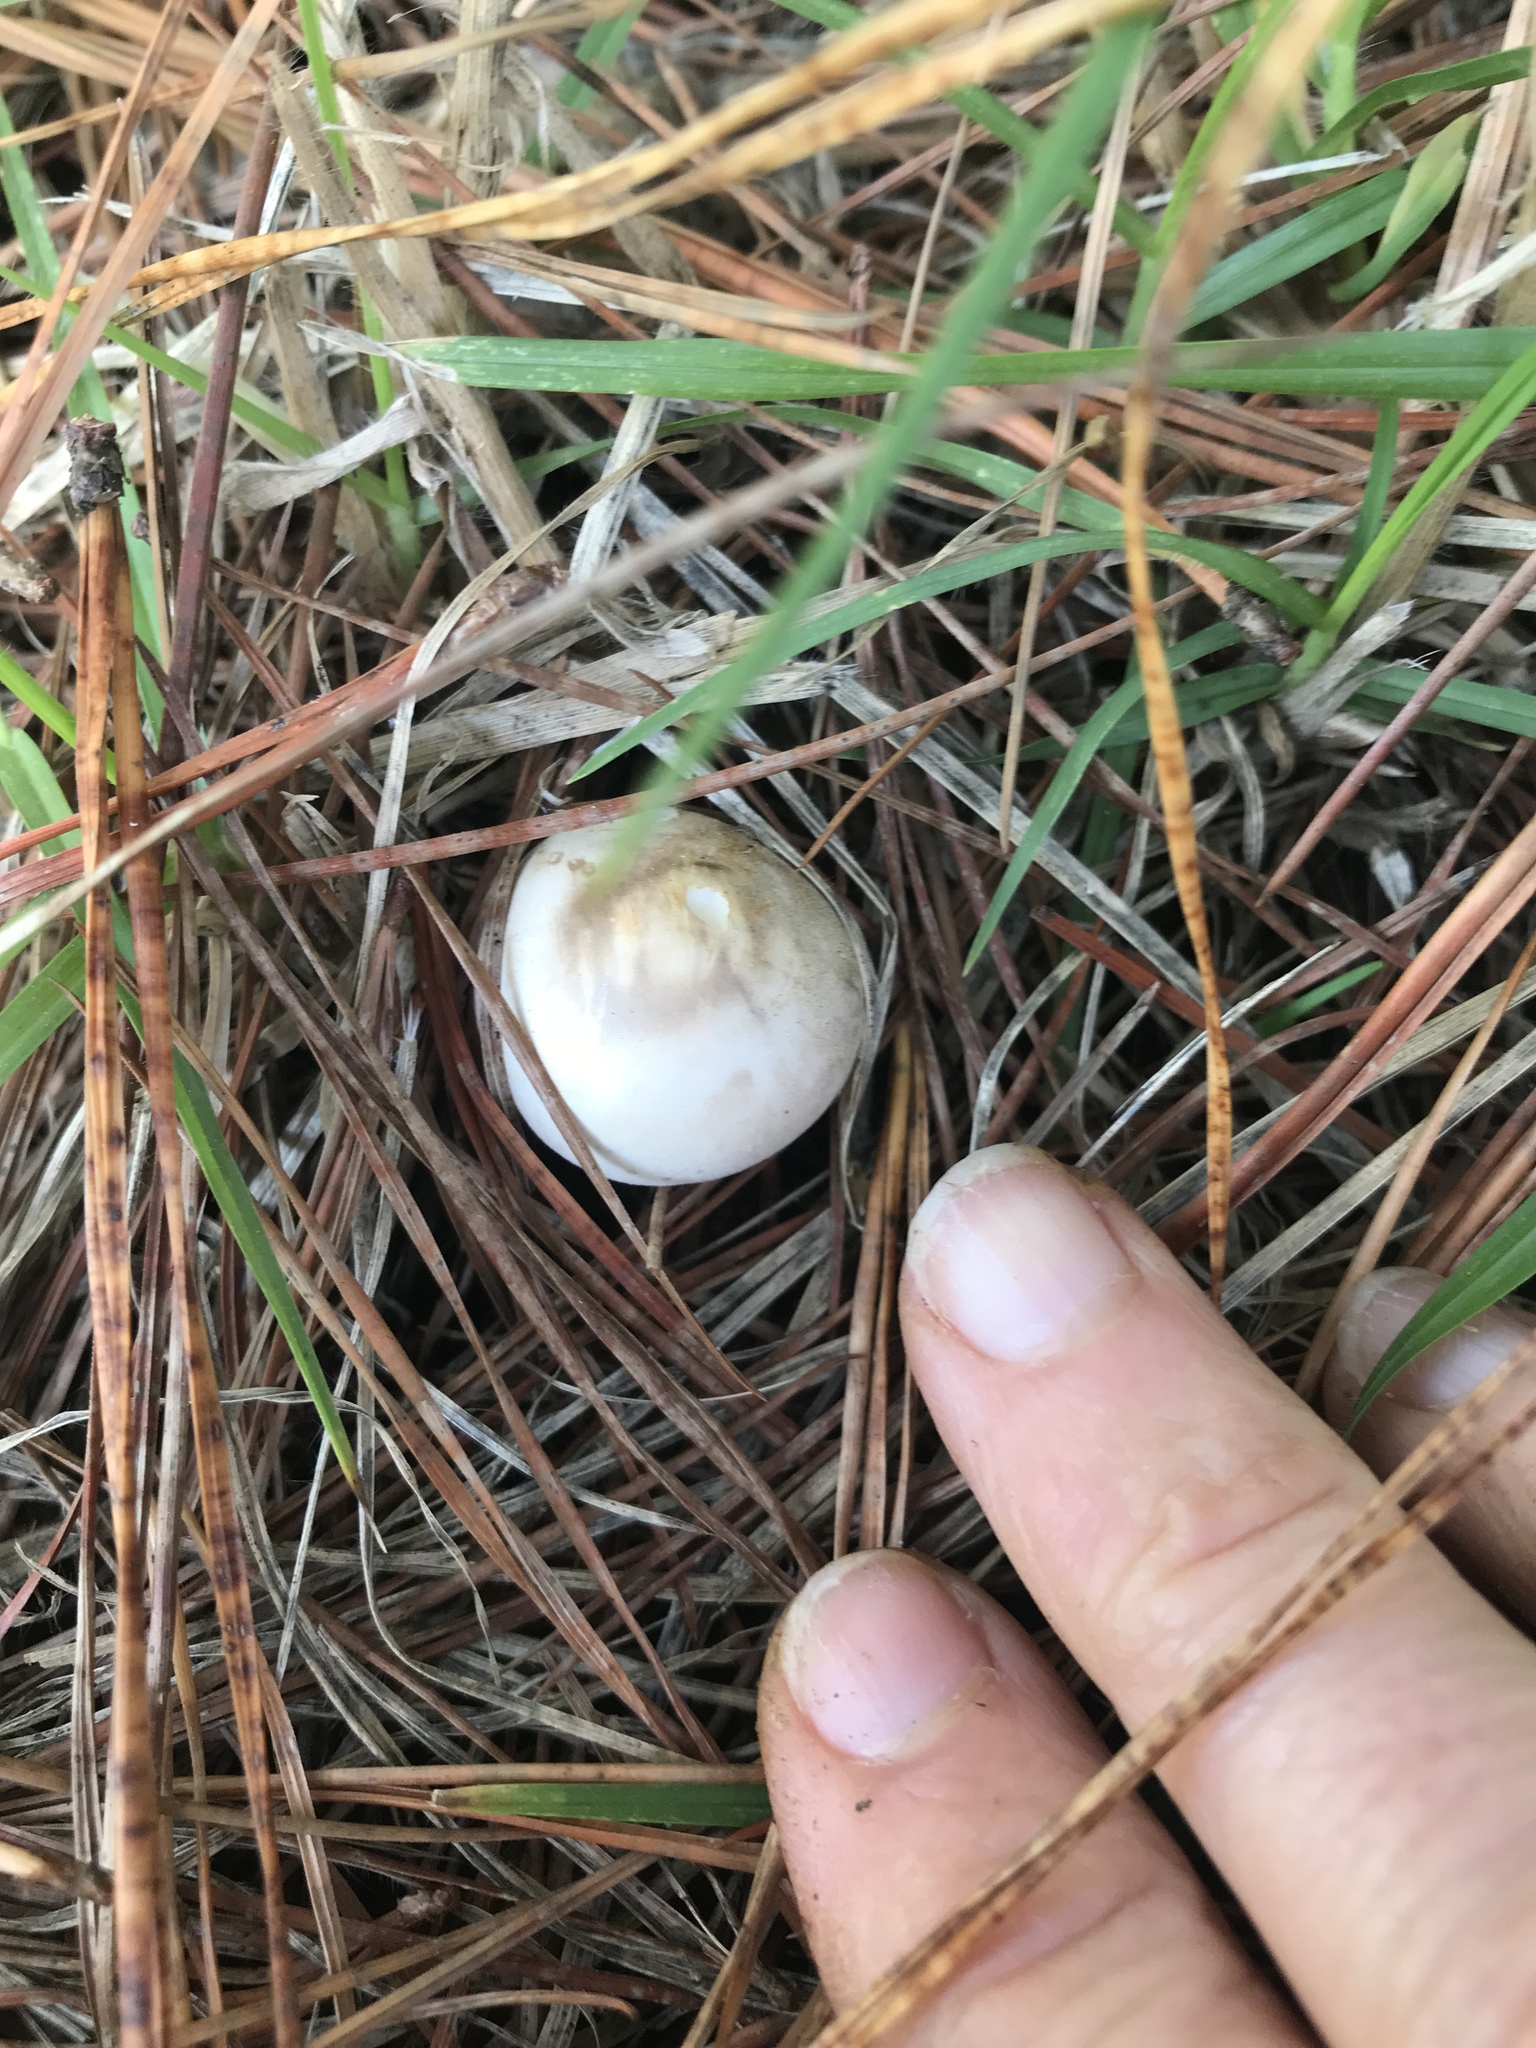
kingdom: Fungi
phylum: Basidiomycota
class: Agaricomycetes
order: Agaricales
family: Agaricaceae
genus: Leucoagaricus
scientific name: Leucoagaricus leucothites
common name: White dapperling
